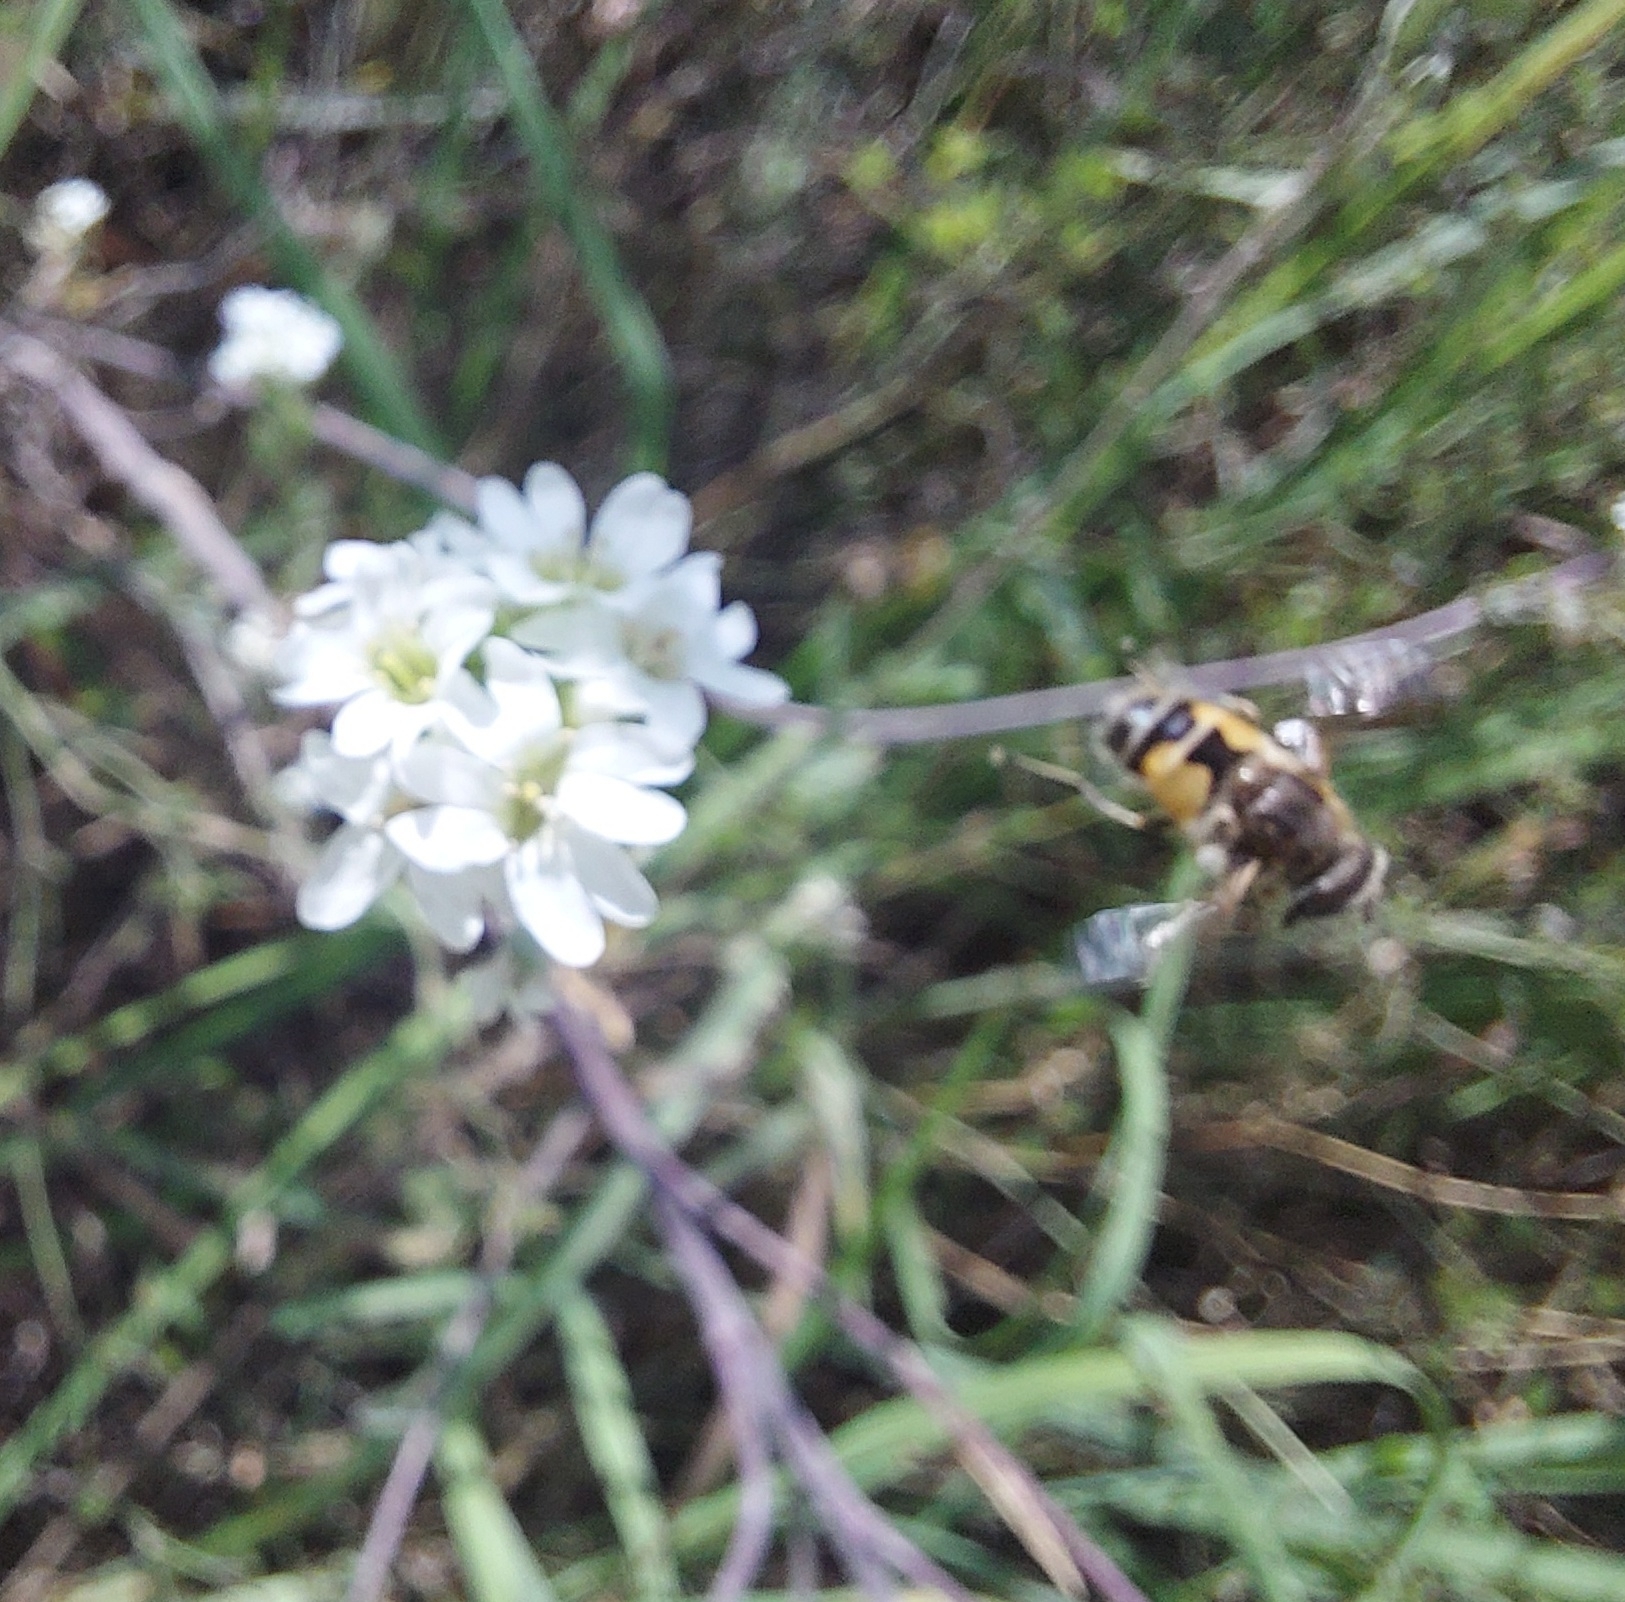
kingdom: Plantae
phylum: Tracheophyta
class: Magnoliopsida
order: Brassicales
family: Brassicaceae
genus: Berteroa
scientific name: Berteroa incana
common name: Hoary alison
